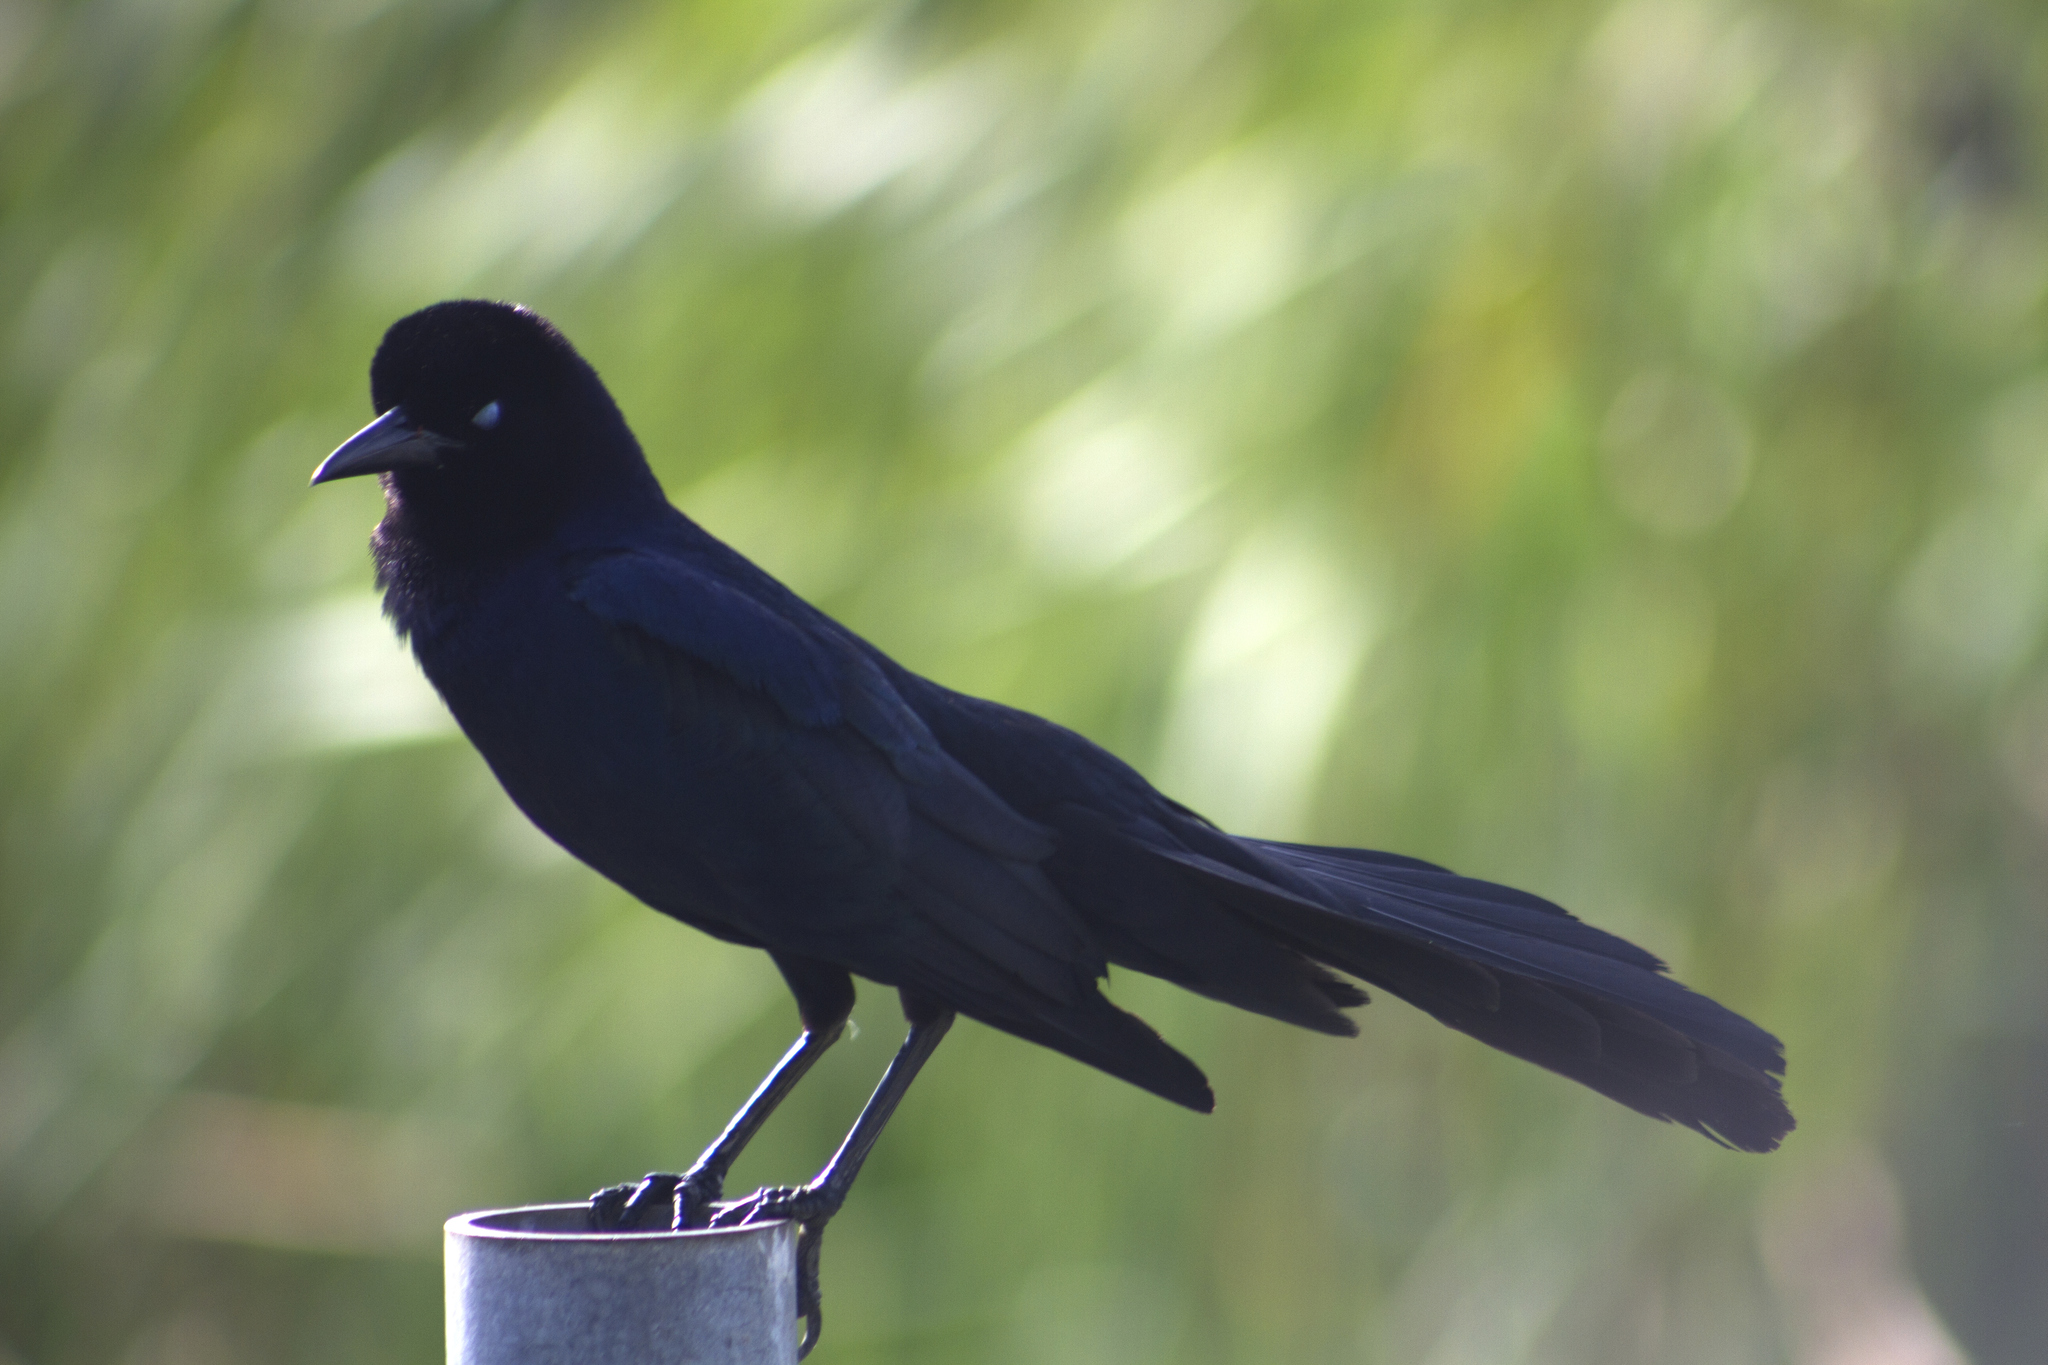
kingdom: Animalia
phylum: Chordata
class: Aves
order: Passeriformes
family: Icteridae
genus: Quiscalus
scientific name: Quiscalus major
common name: Boat-tailed grackle
